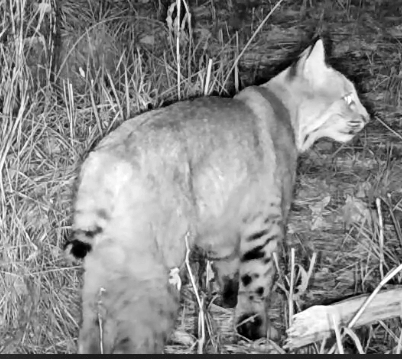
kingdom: Animalia
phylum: Chordata
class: Mammalia
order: Carnivora
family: Felidae
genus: Lynx
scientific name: Lynx rufus
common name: Bobcat
